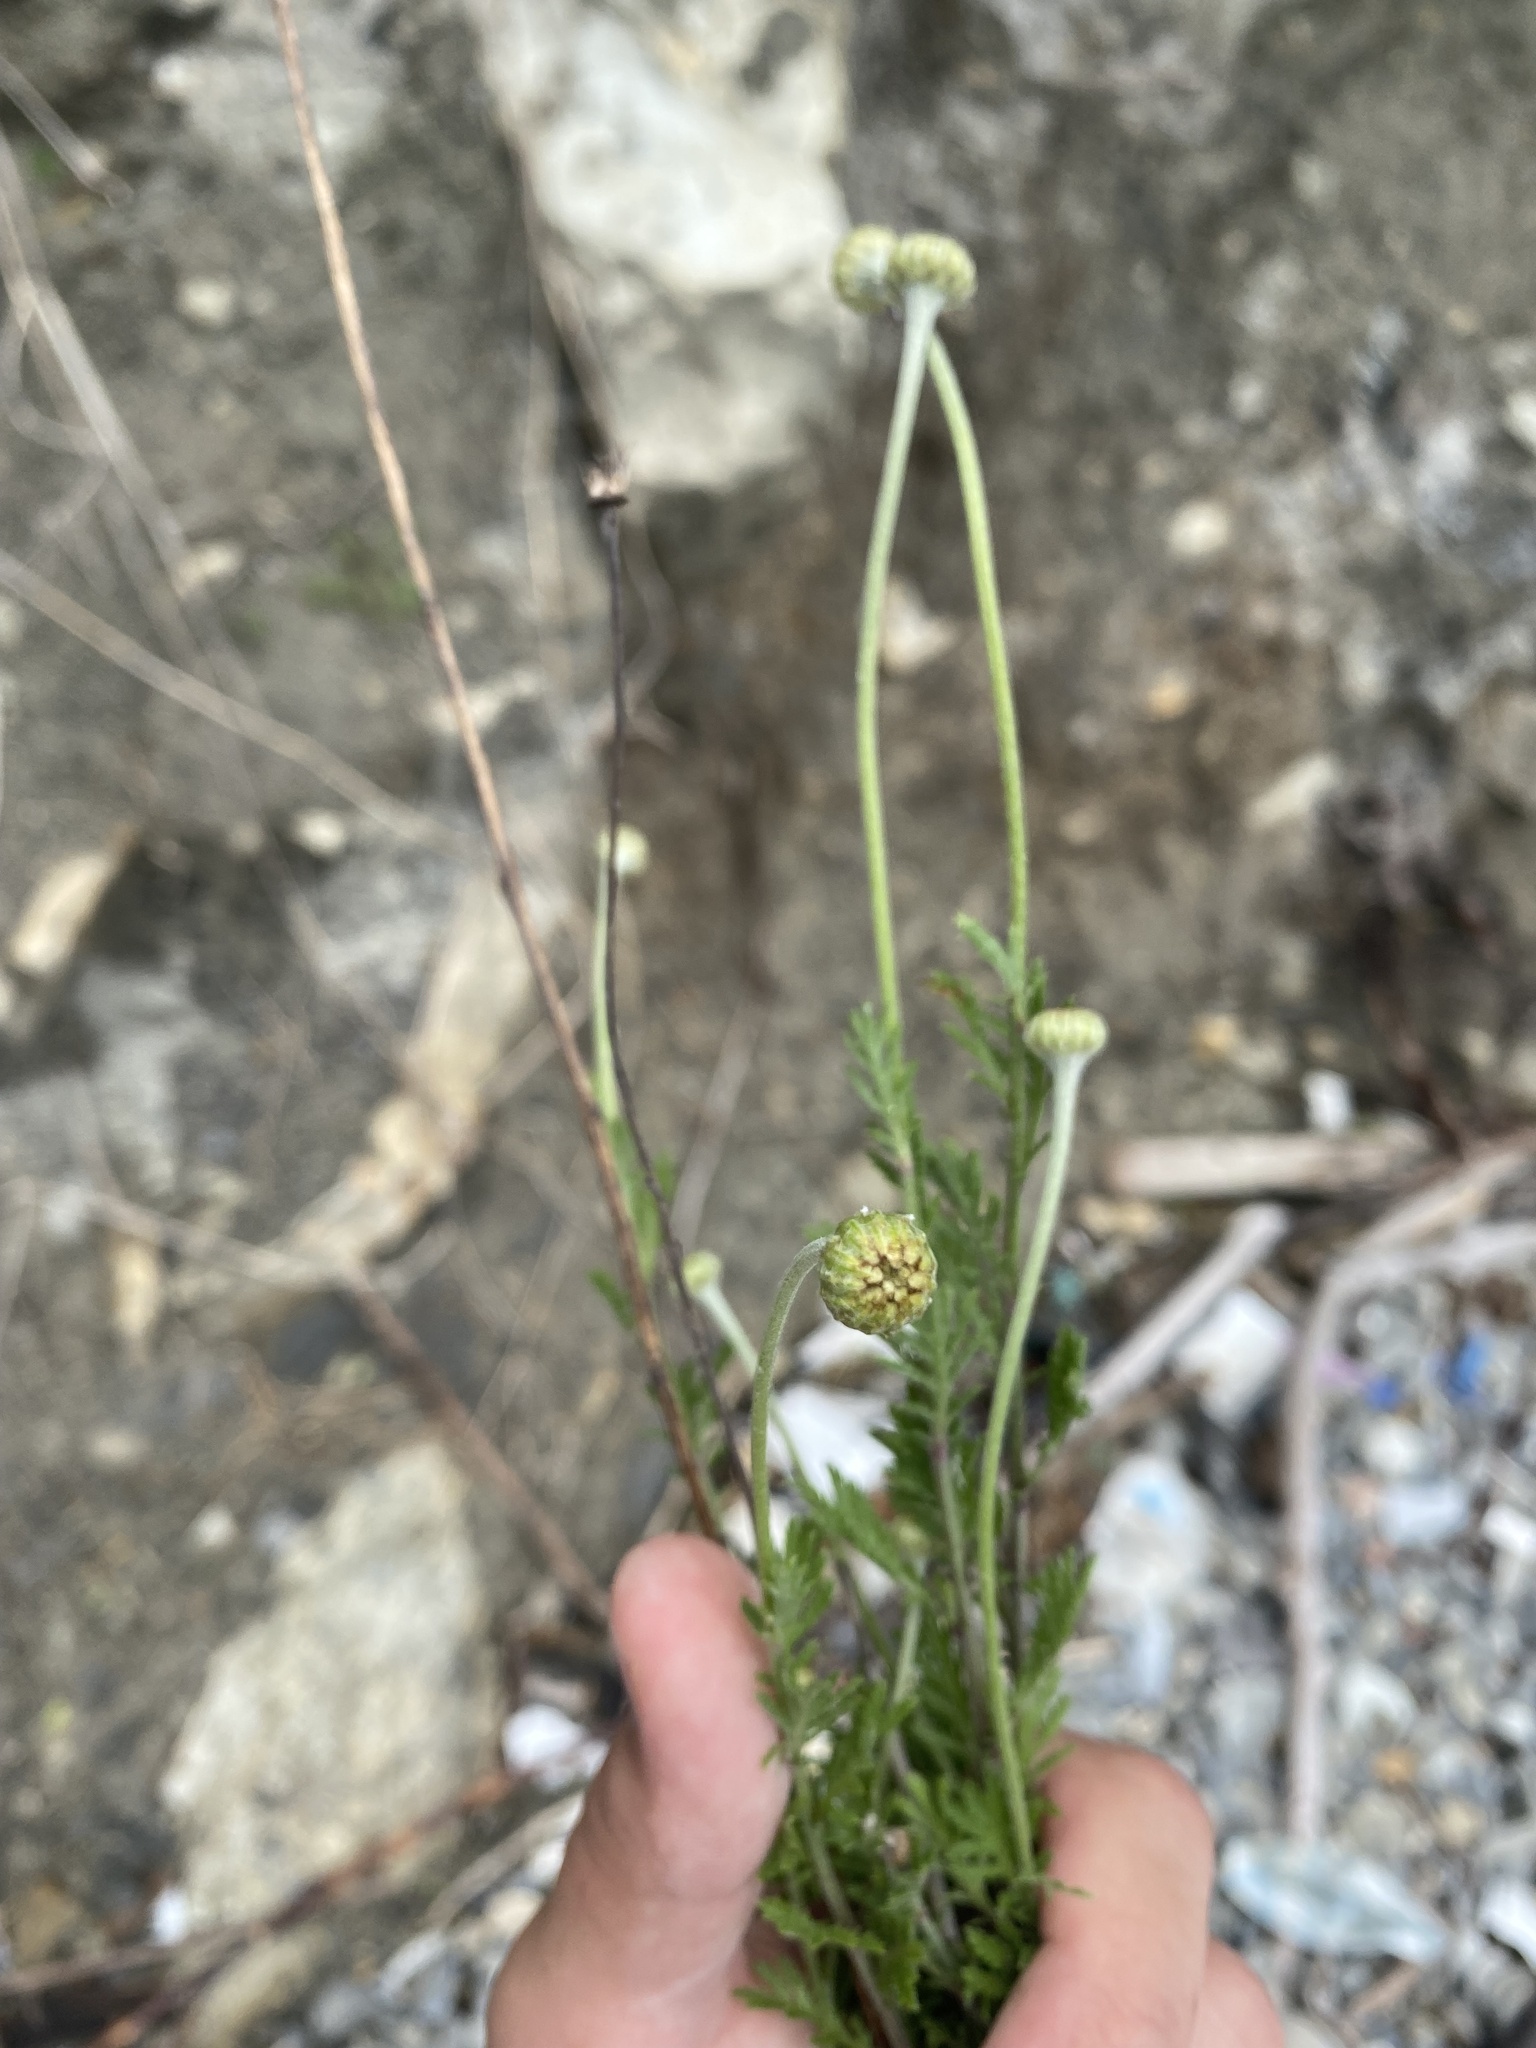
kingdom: Plantae
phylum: Tracheophyta
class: Magnoliopsida
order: Asterales
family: Asteraceae
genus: Cota
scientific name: Cota triumfetti
